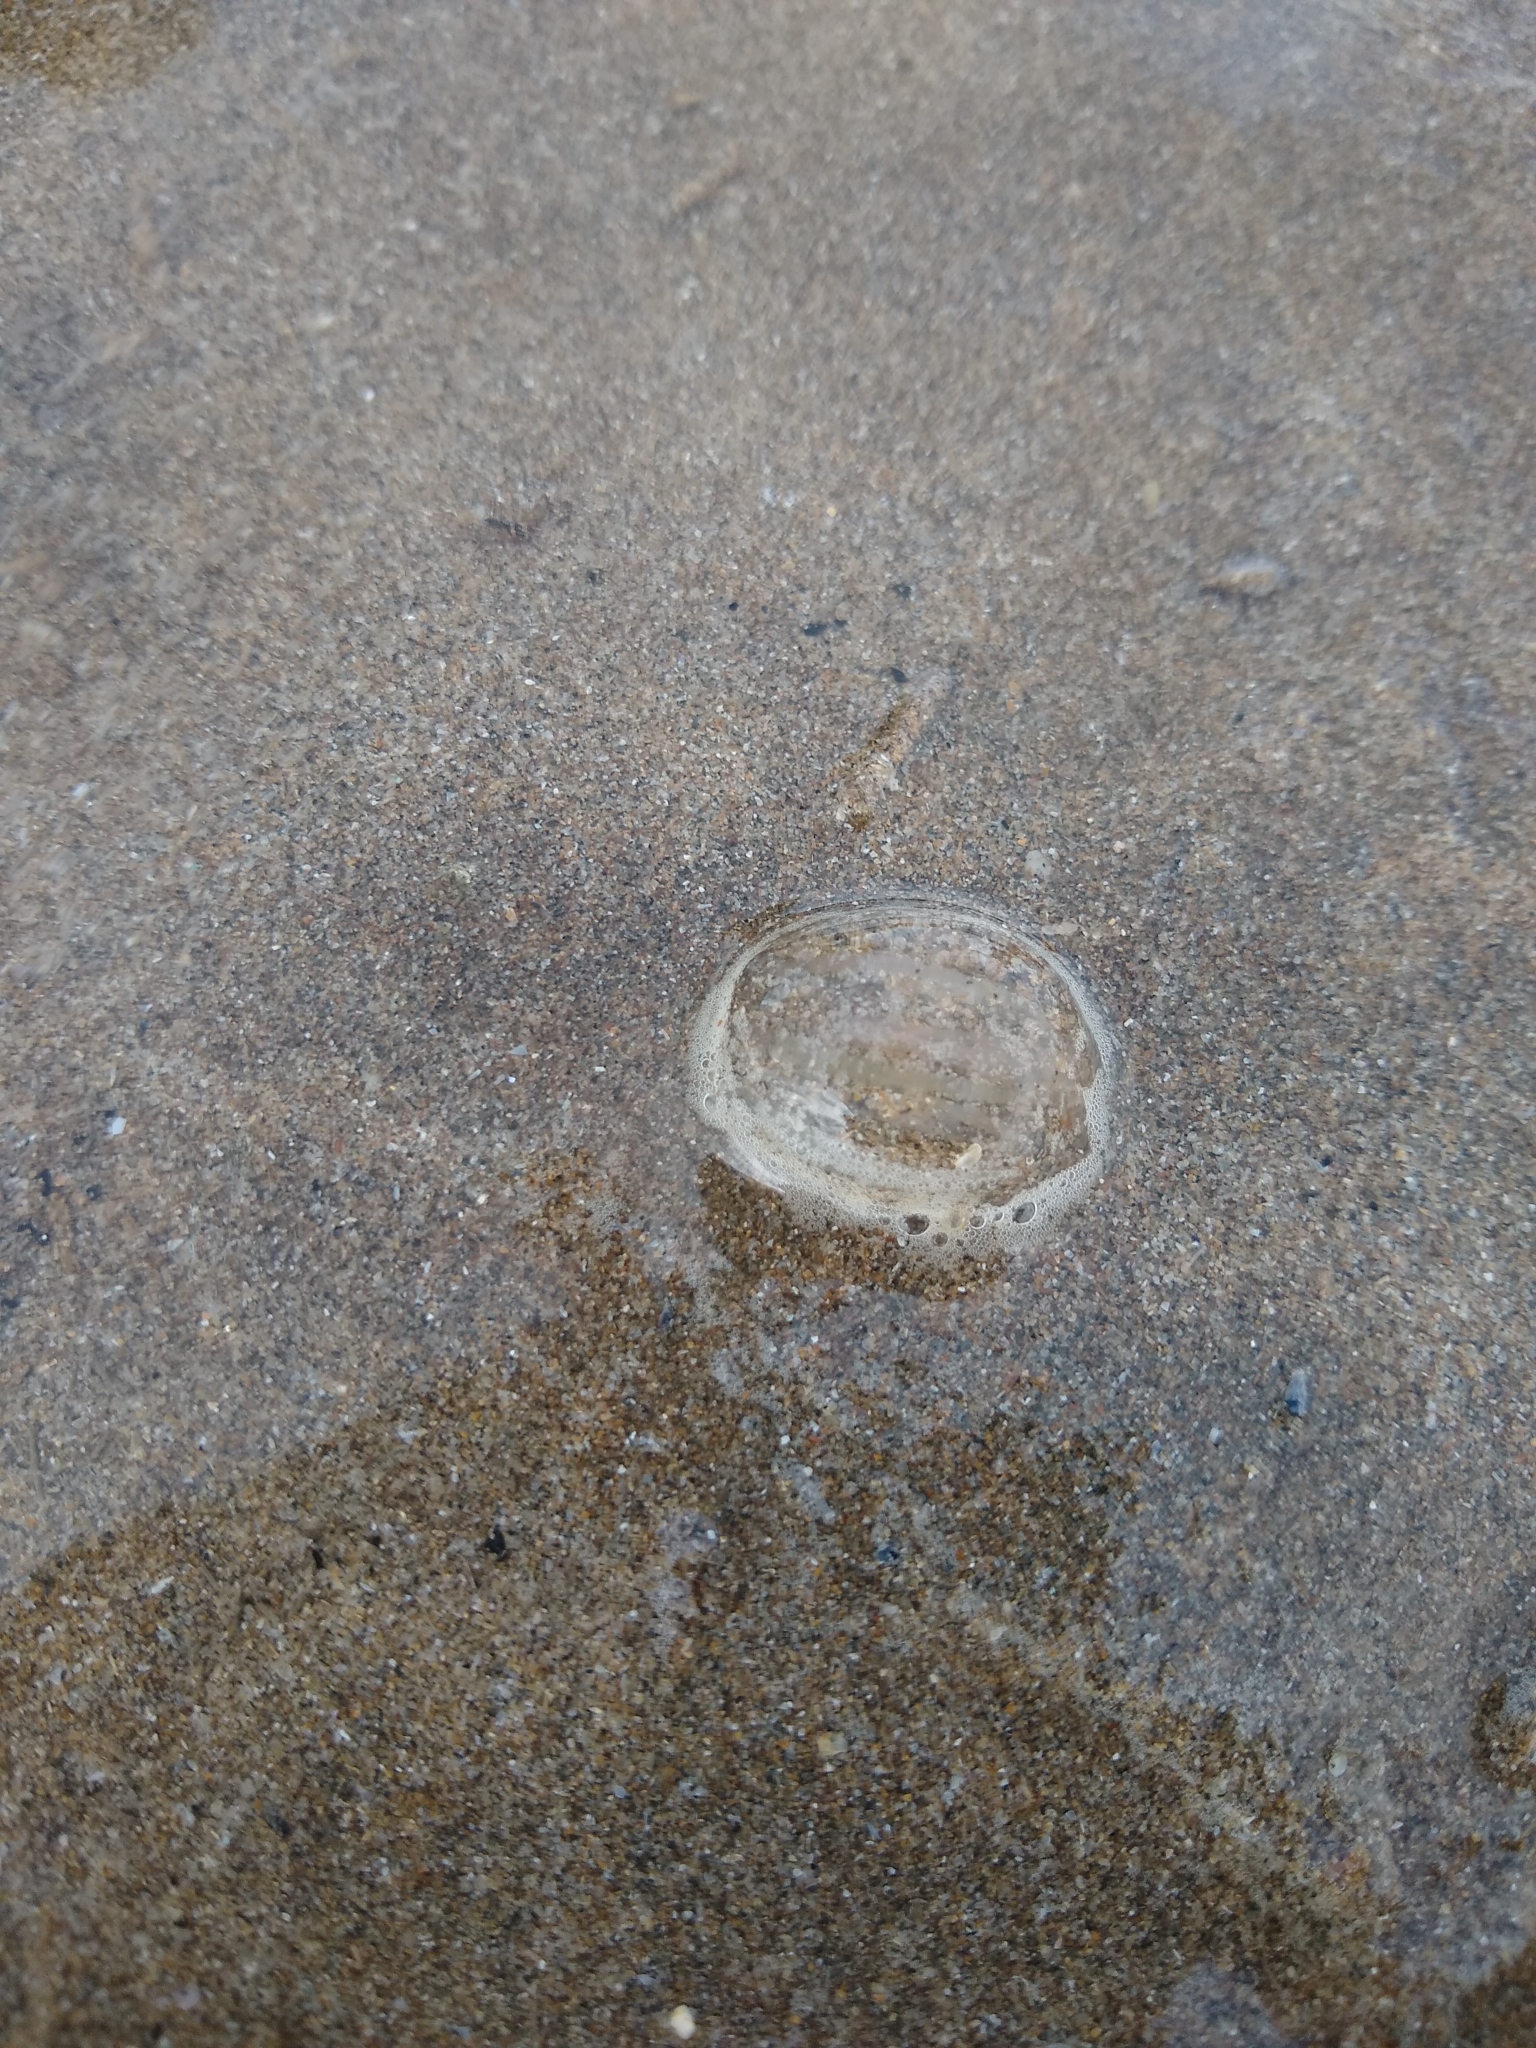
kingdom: Animalia
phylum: Ctenophora
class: Tentaculata
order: Cydippida
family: Pleurobrachiidae
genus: Pleurobrachia
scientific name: Pleurobrachia pileus
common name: Sea gooseberry
